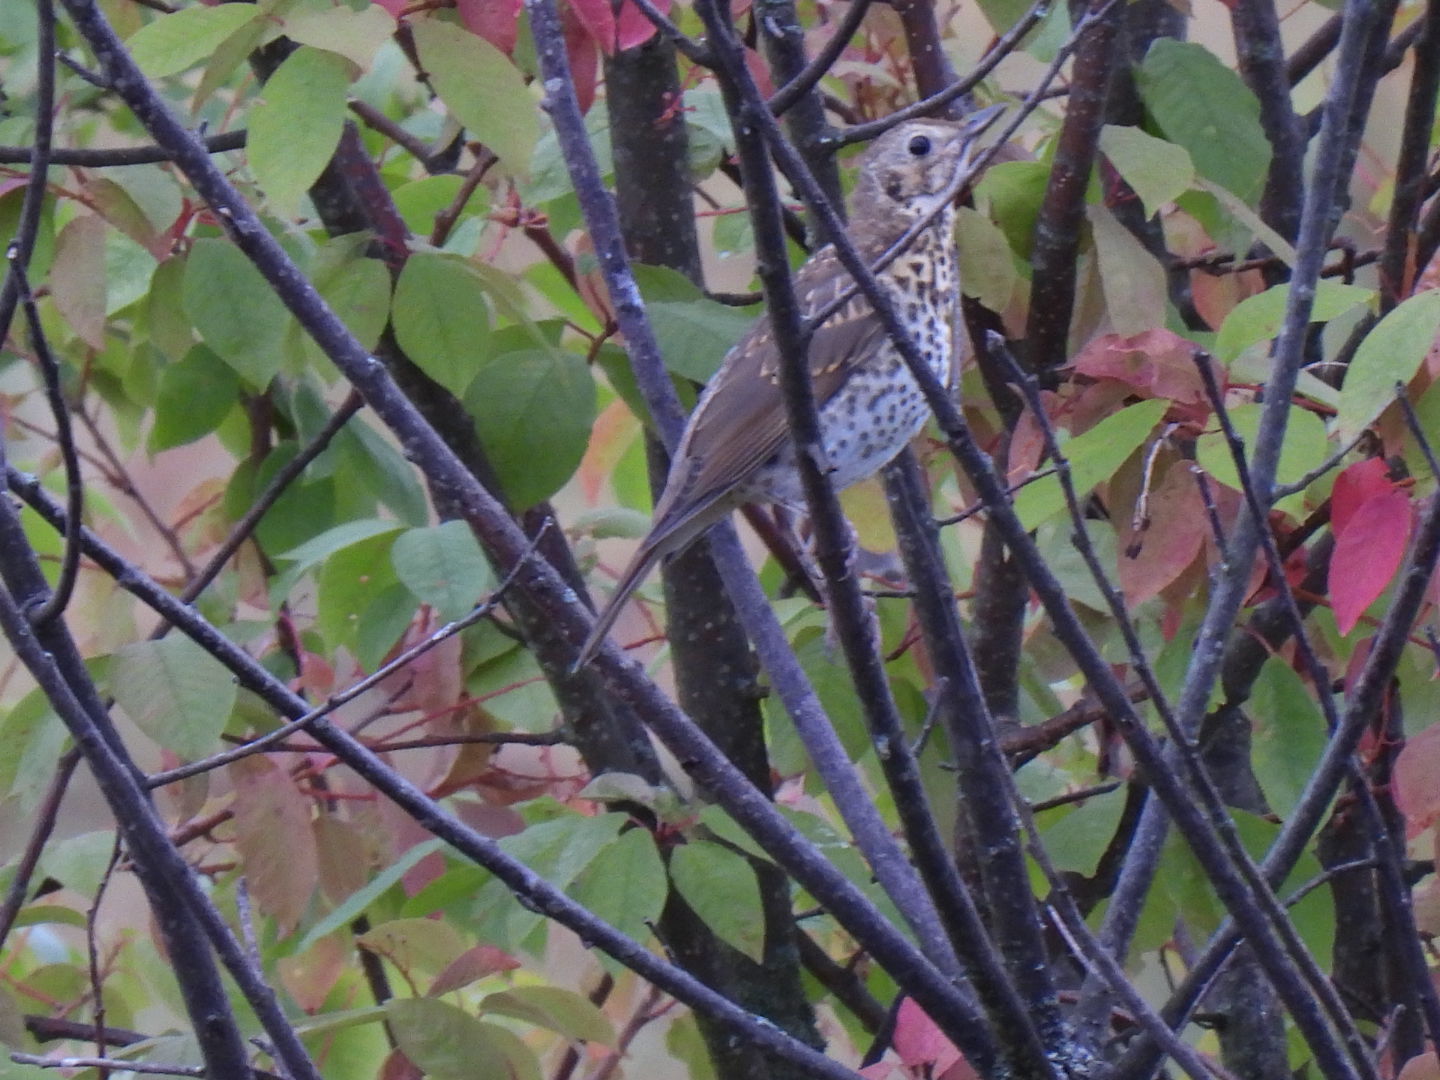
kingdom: Animalia
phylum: Chordata
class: Aves
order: Passeriformes
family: Turdidae
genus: Turdus
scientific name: Turdus philomelos
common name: Song thrush
